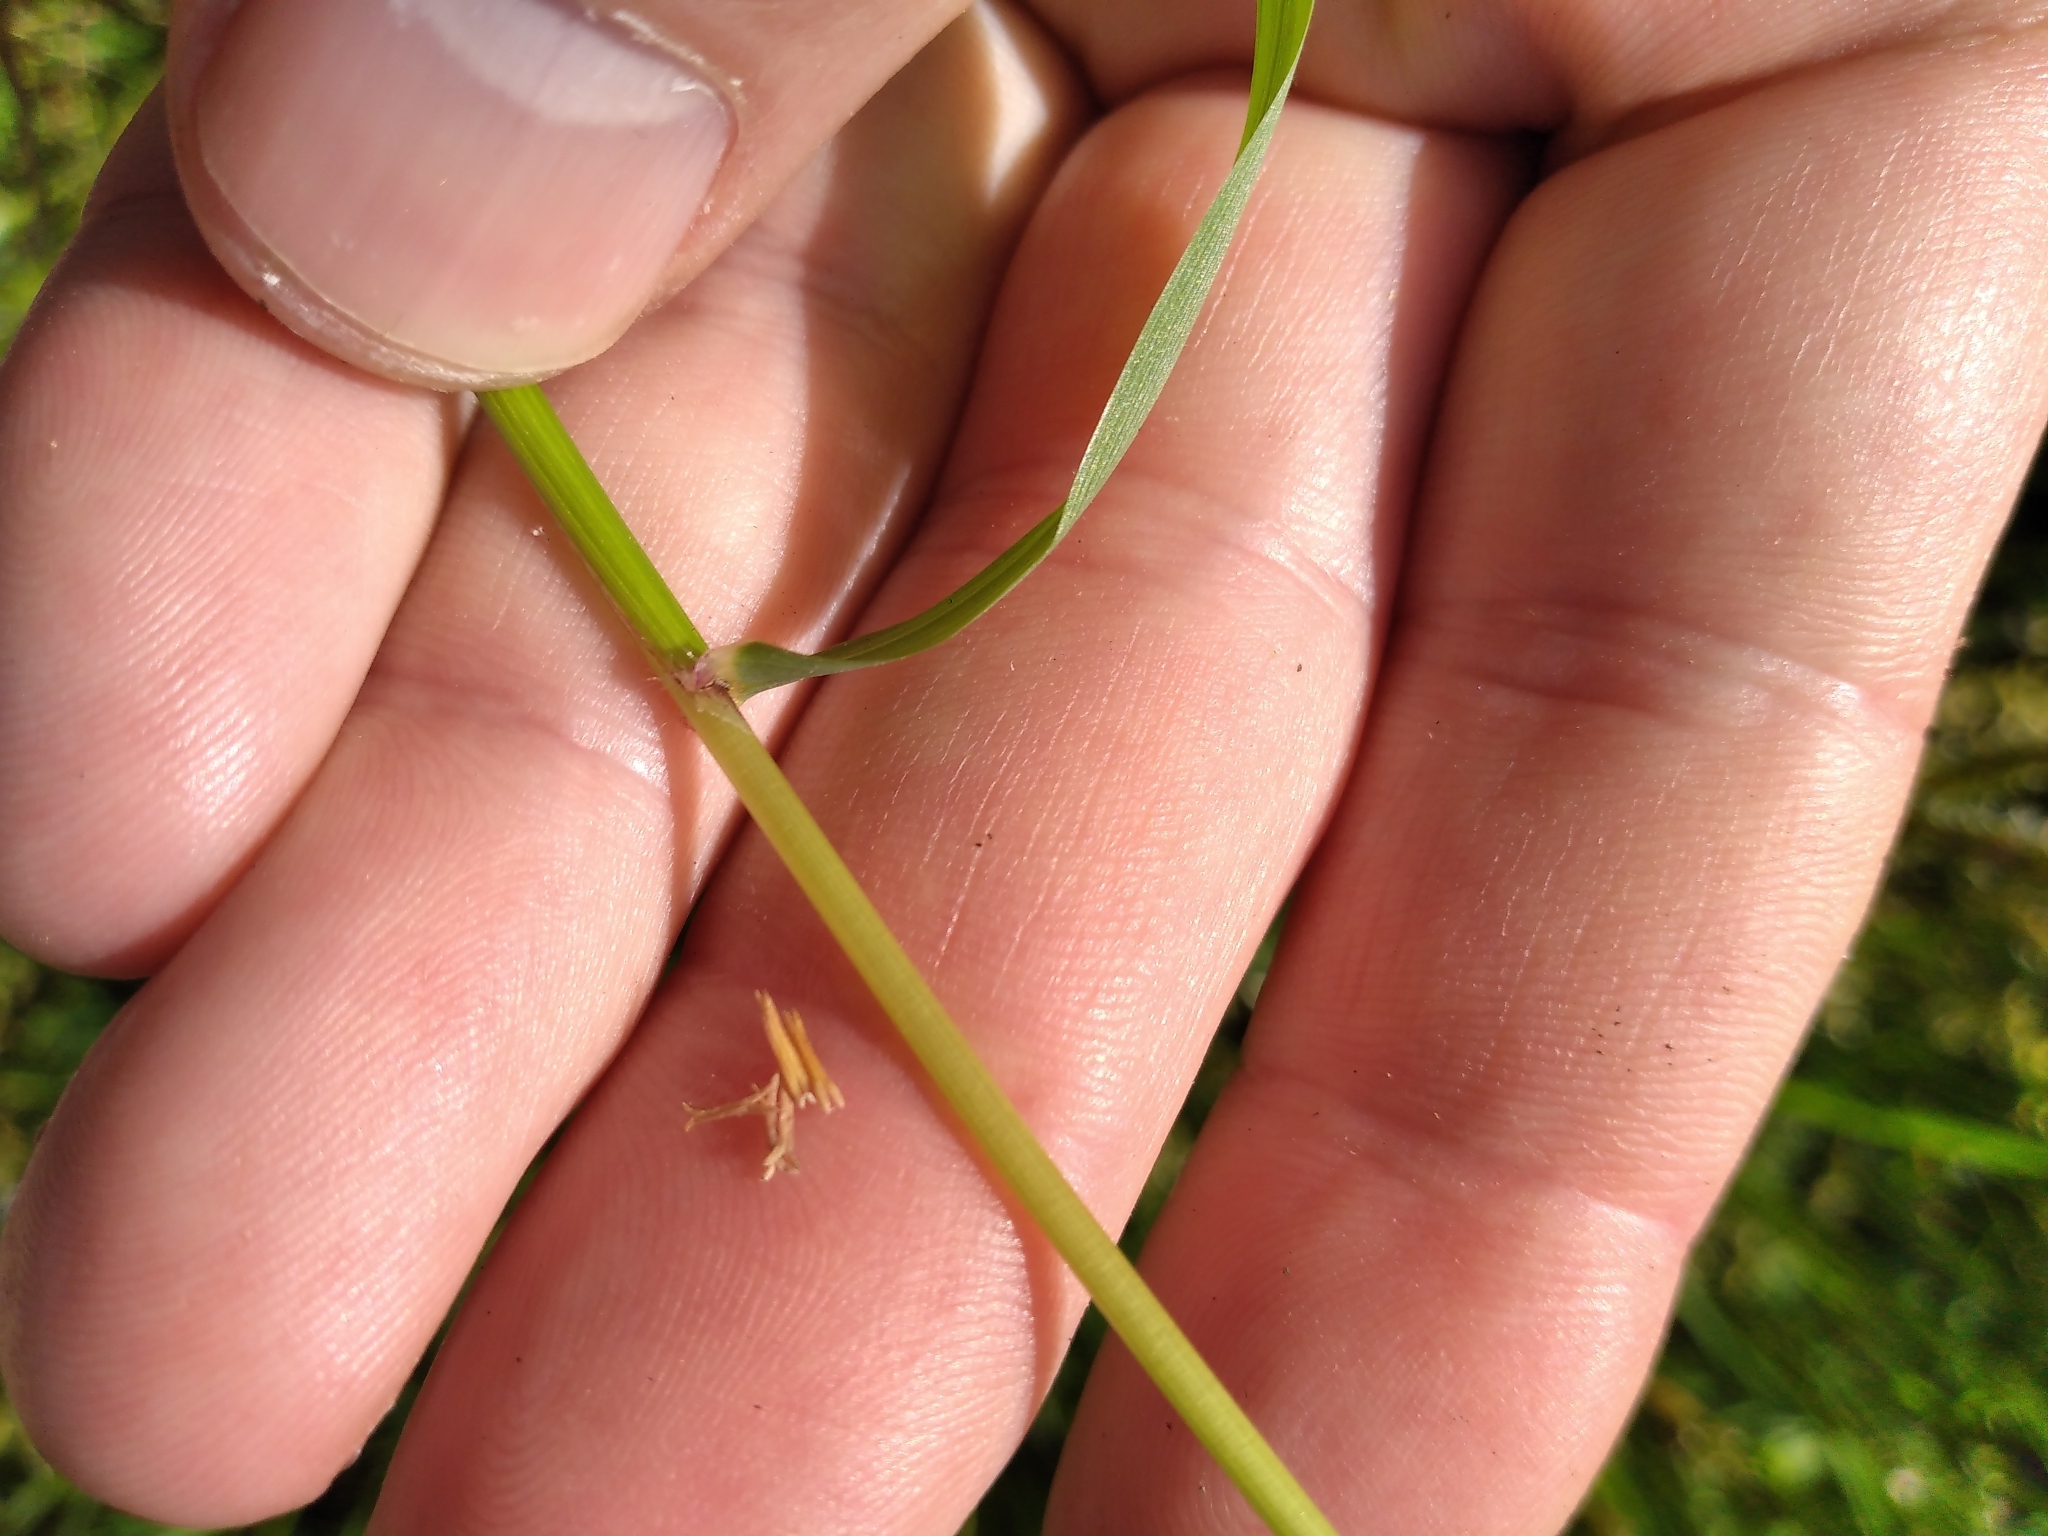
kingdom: Plantae
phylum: Tracheophyta
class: Liliopsida
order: Poales
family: Poaceae
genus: Anthoxanthum
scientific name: Anthoxanthum odoratum
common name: Sweet vernalgrass
